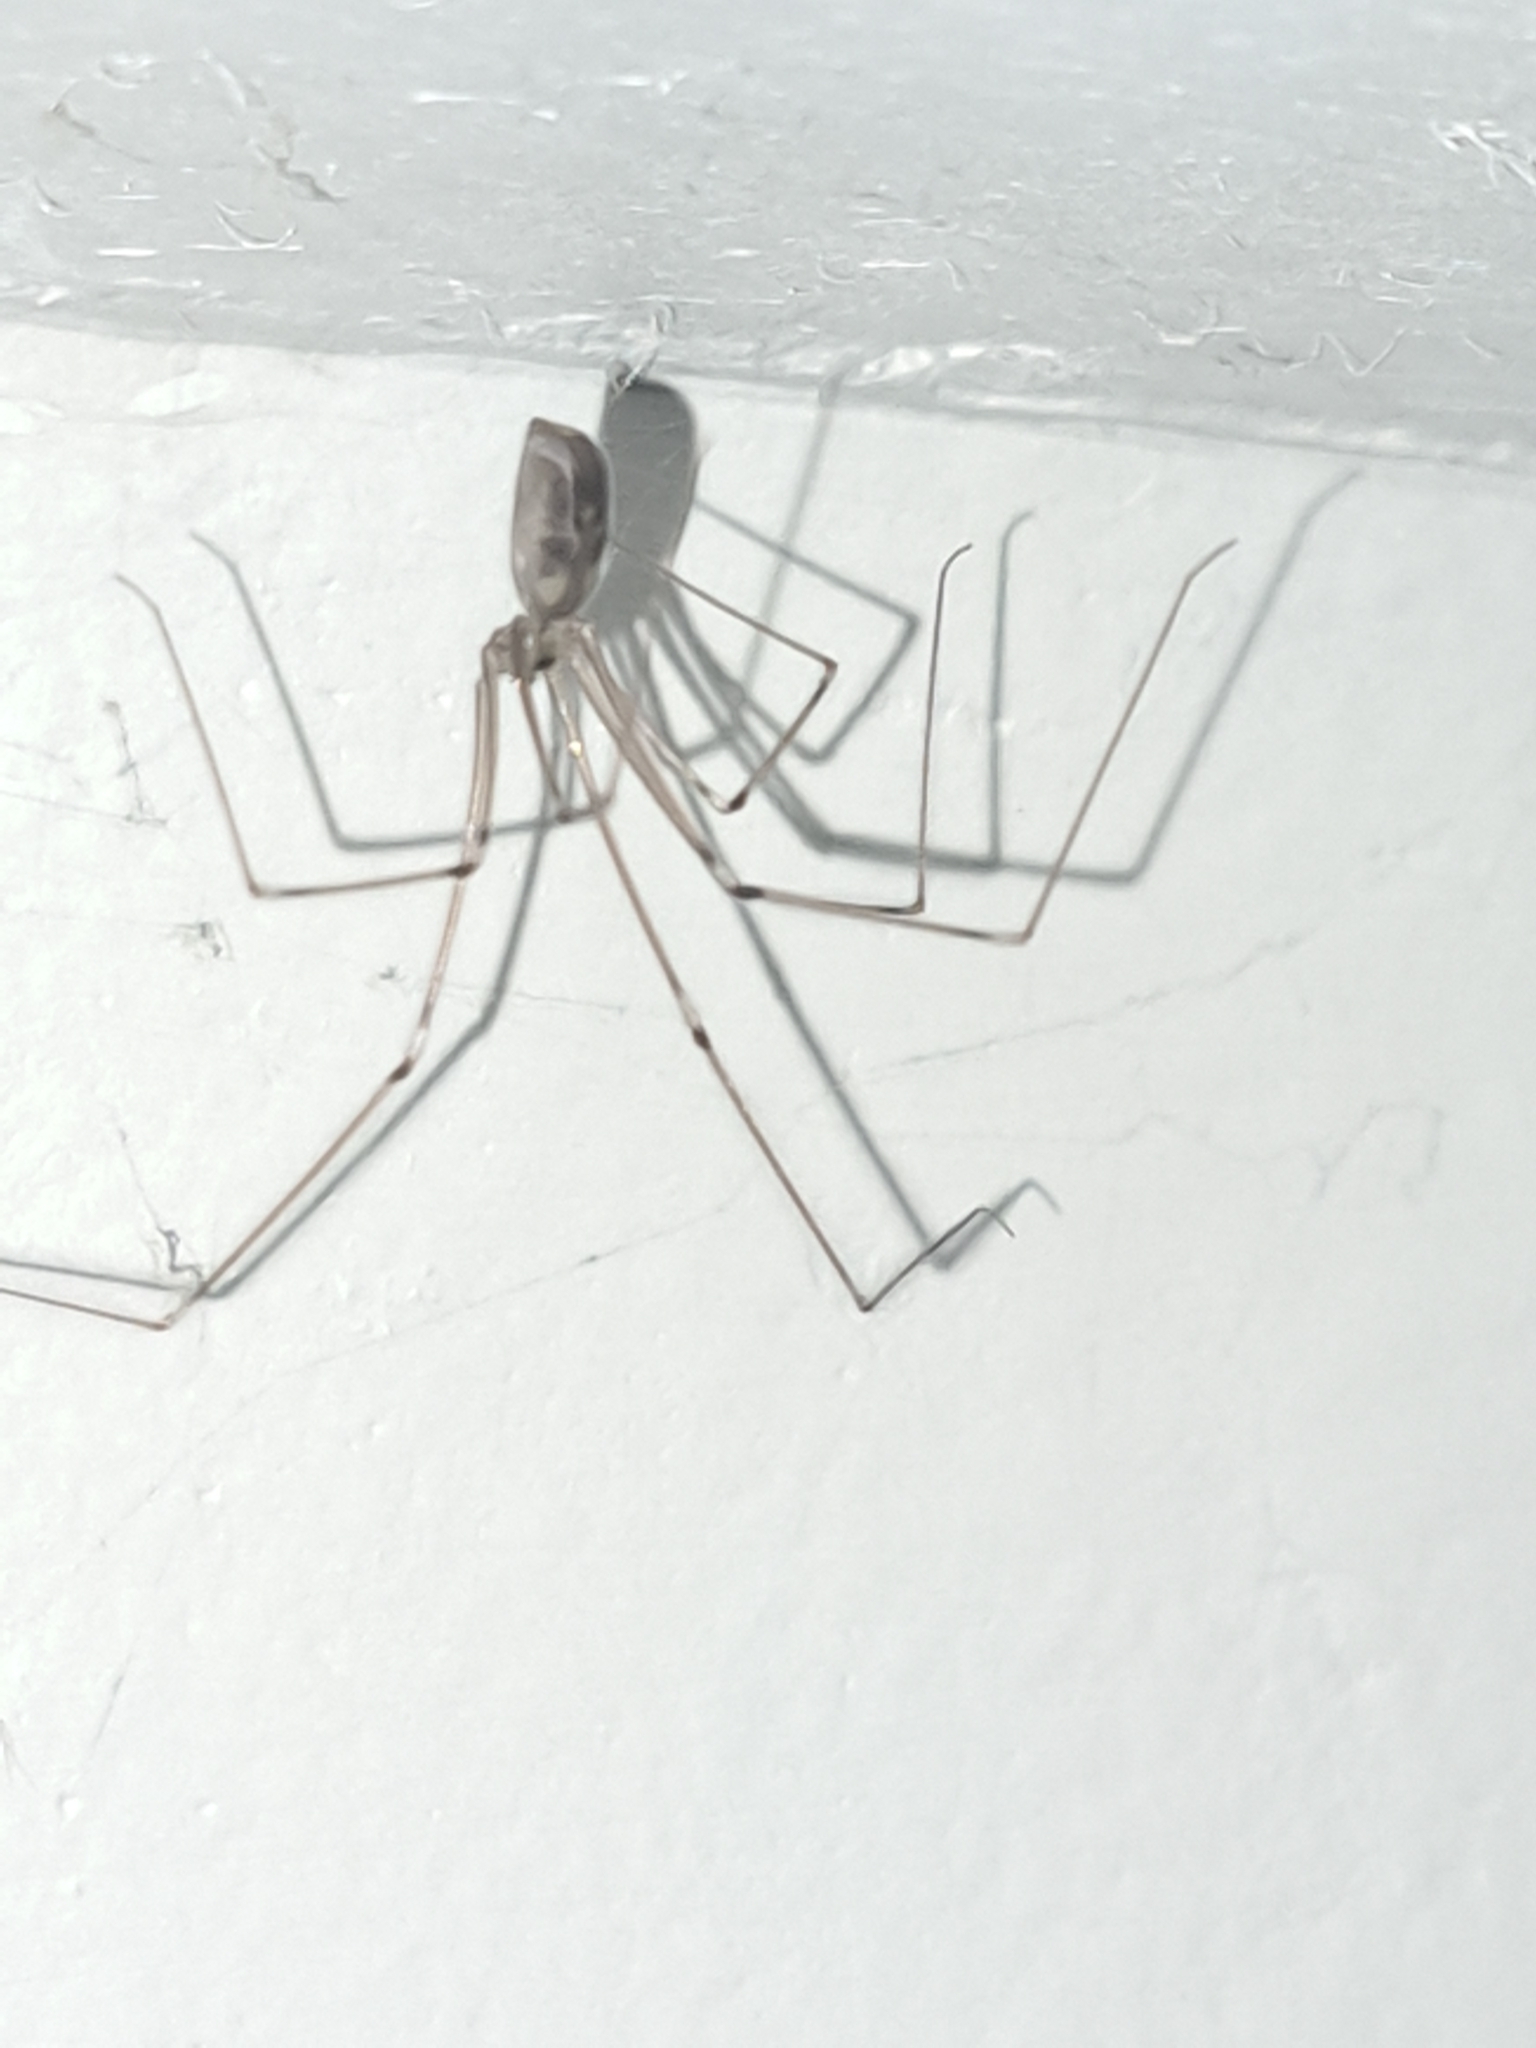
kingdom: Animalia
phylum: Arthropoda
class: Arachnida
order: Araneae
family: Pholcidae
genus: Pholcus
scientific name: Pholcus phalangioides
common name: Longbodied cellar spider
